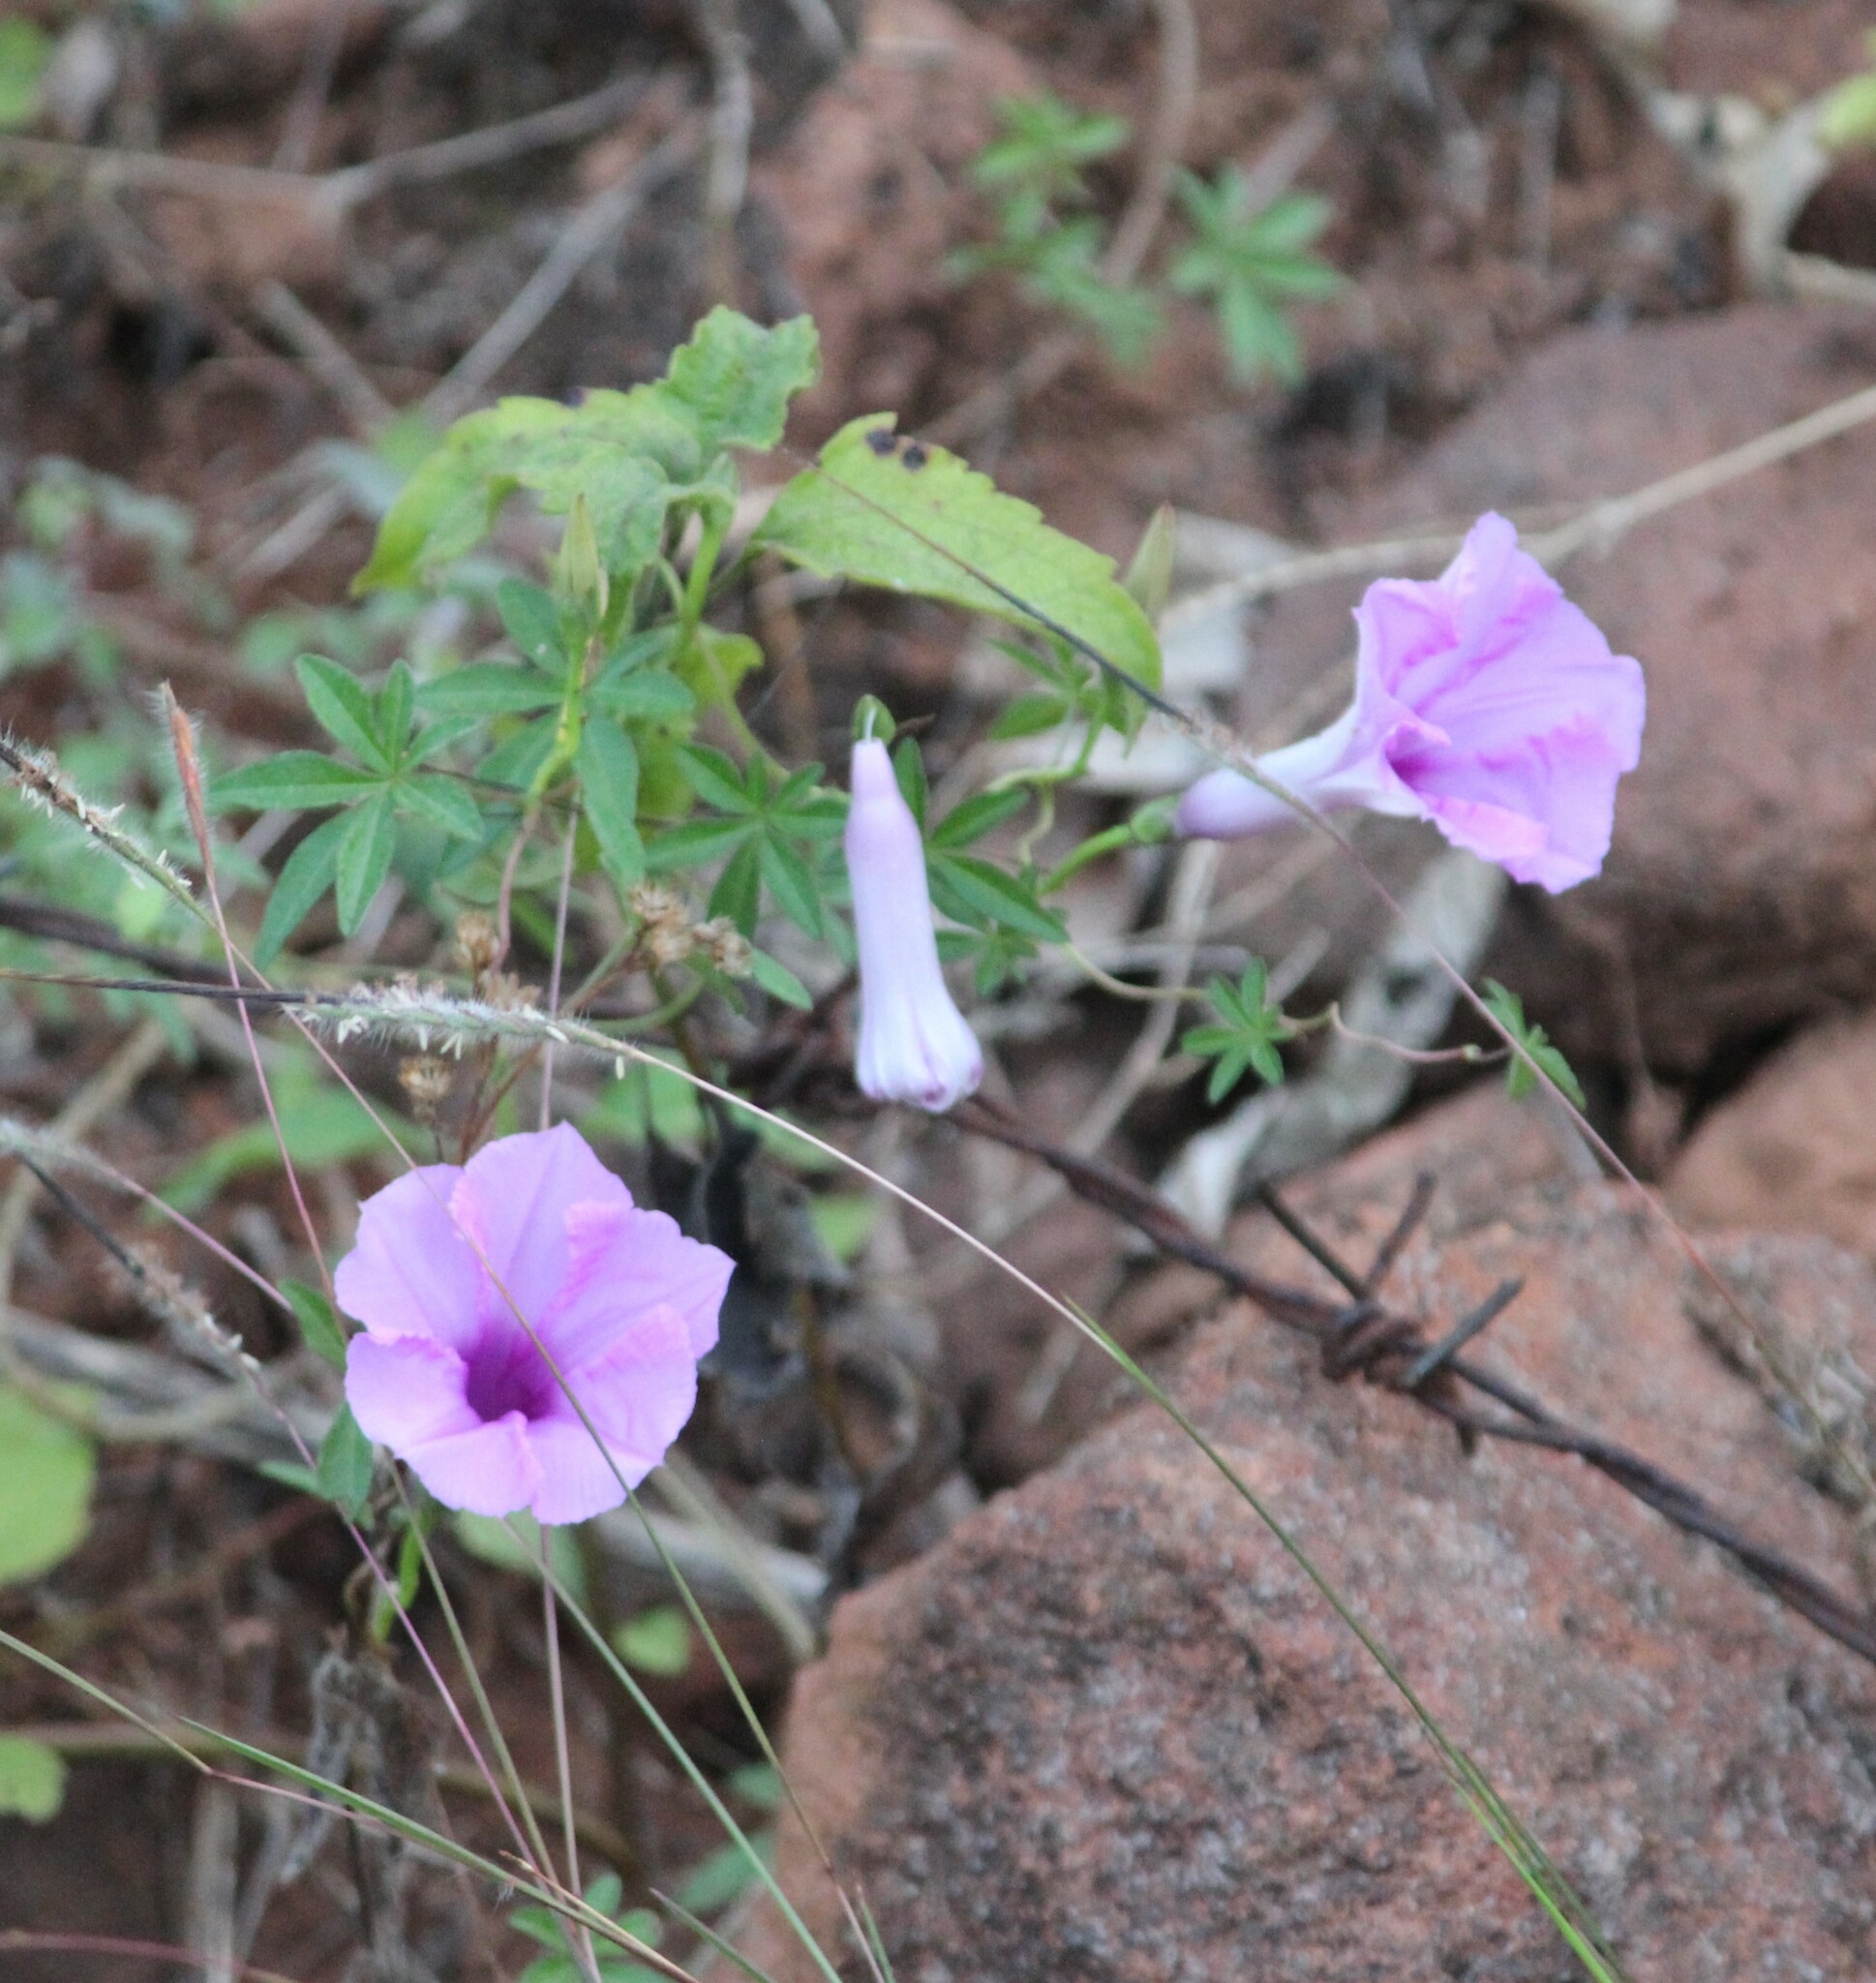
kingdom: Plantae
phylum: Tracheophyta
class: Magnoliopsida
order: Solanales
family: Convolvulaceae
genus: Ipomoea
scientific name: Ipomoea cairica
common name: Mile a minute vine
